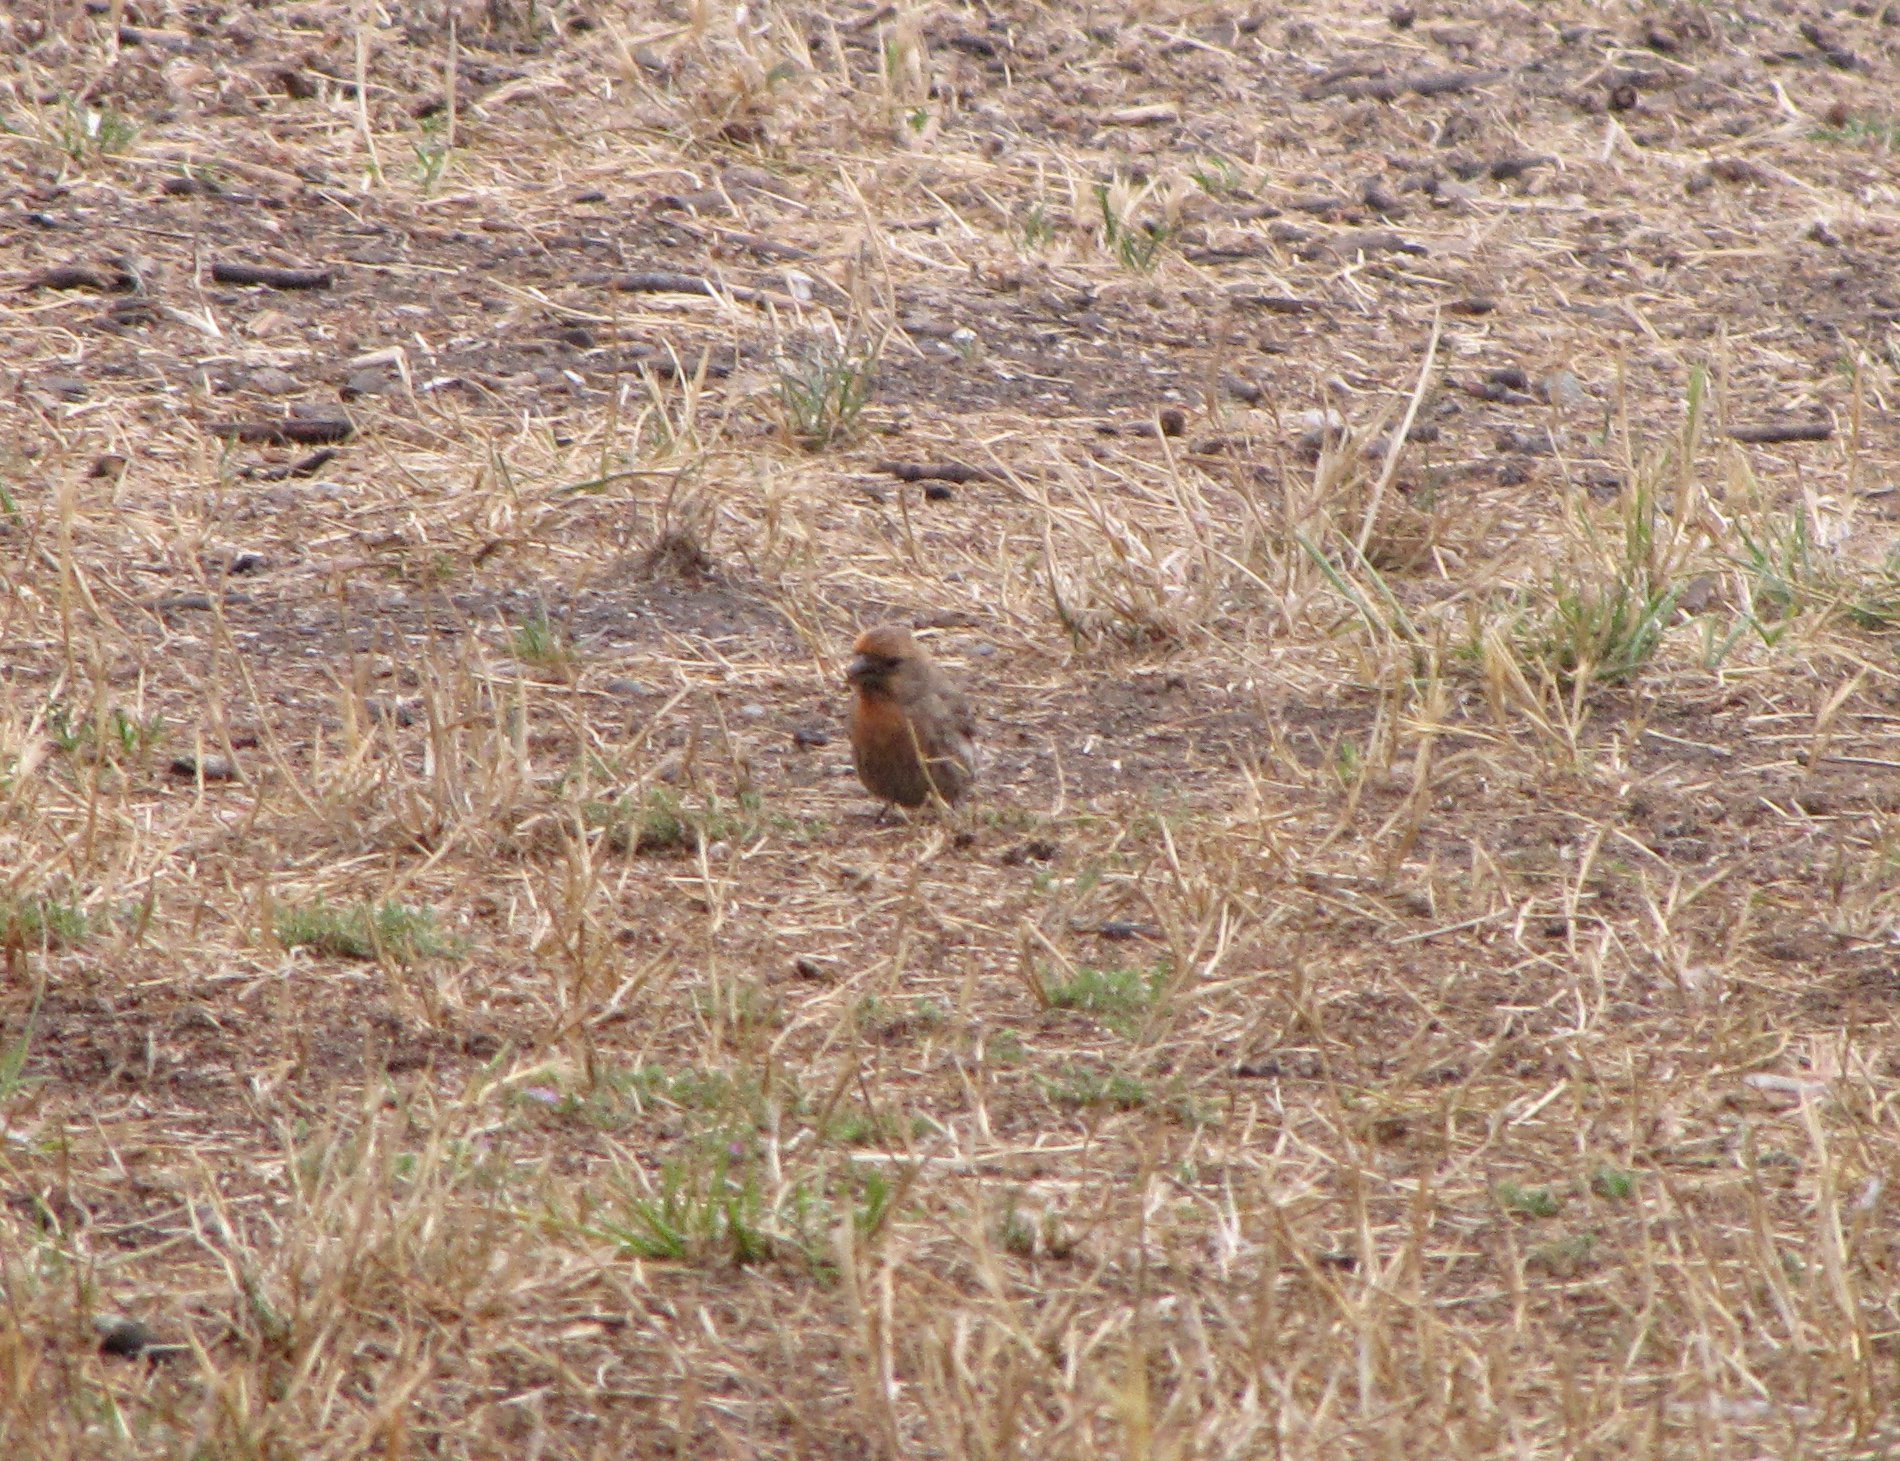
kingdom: Animalia
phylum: Chordata
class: Aves
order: Passeriformes
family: Fringillidae
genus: Haemorhous
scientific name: Haemorhous mexicanus
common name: House finch
